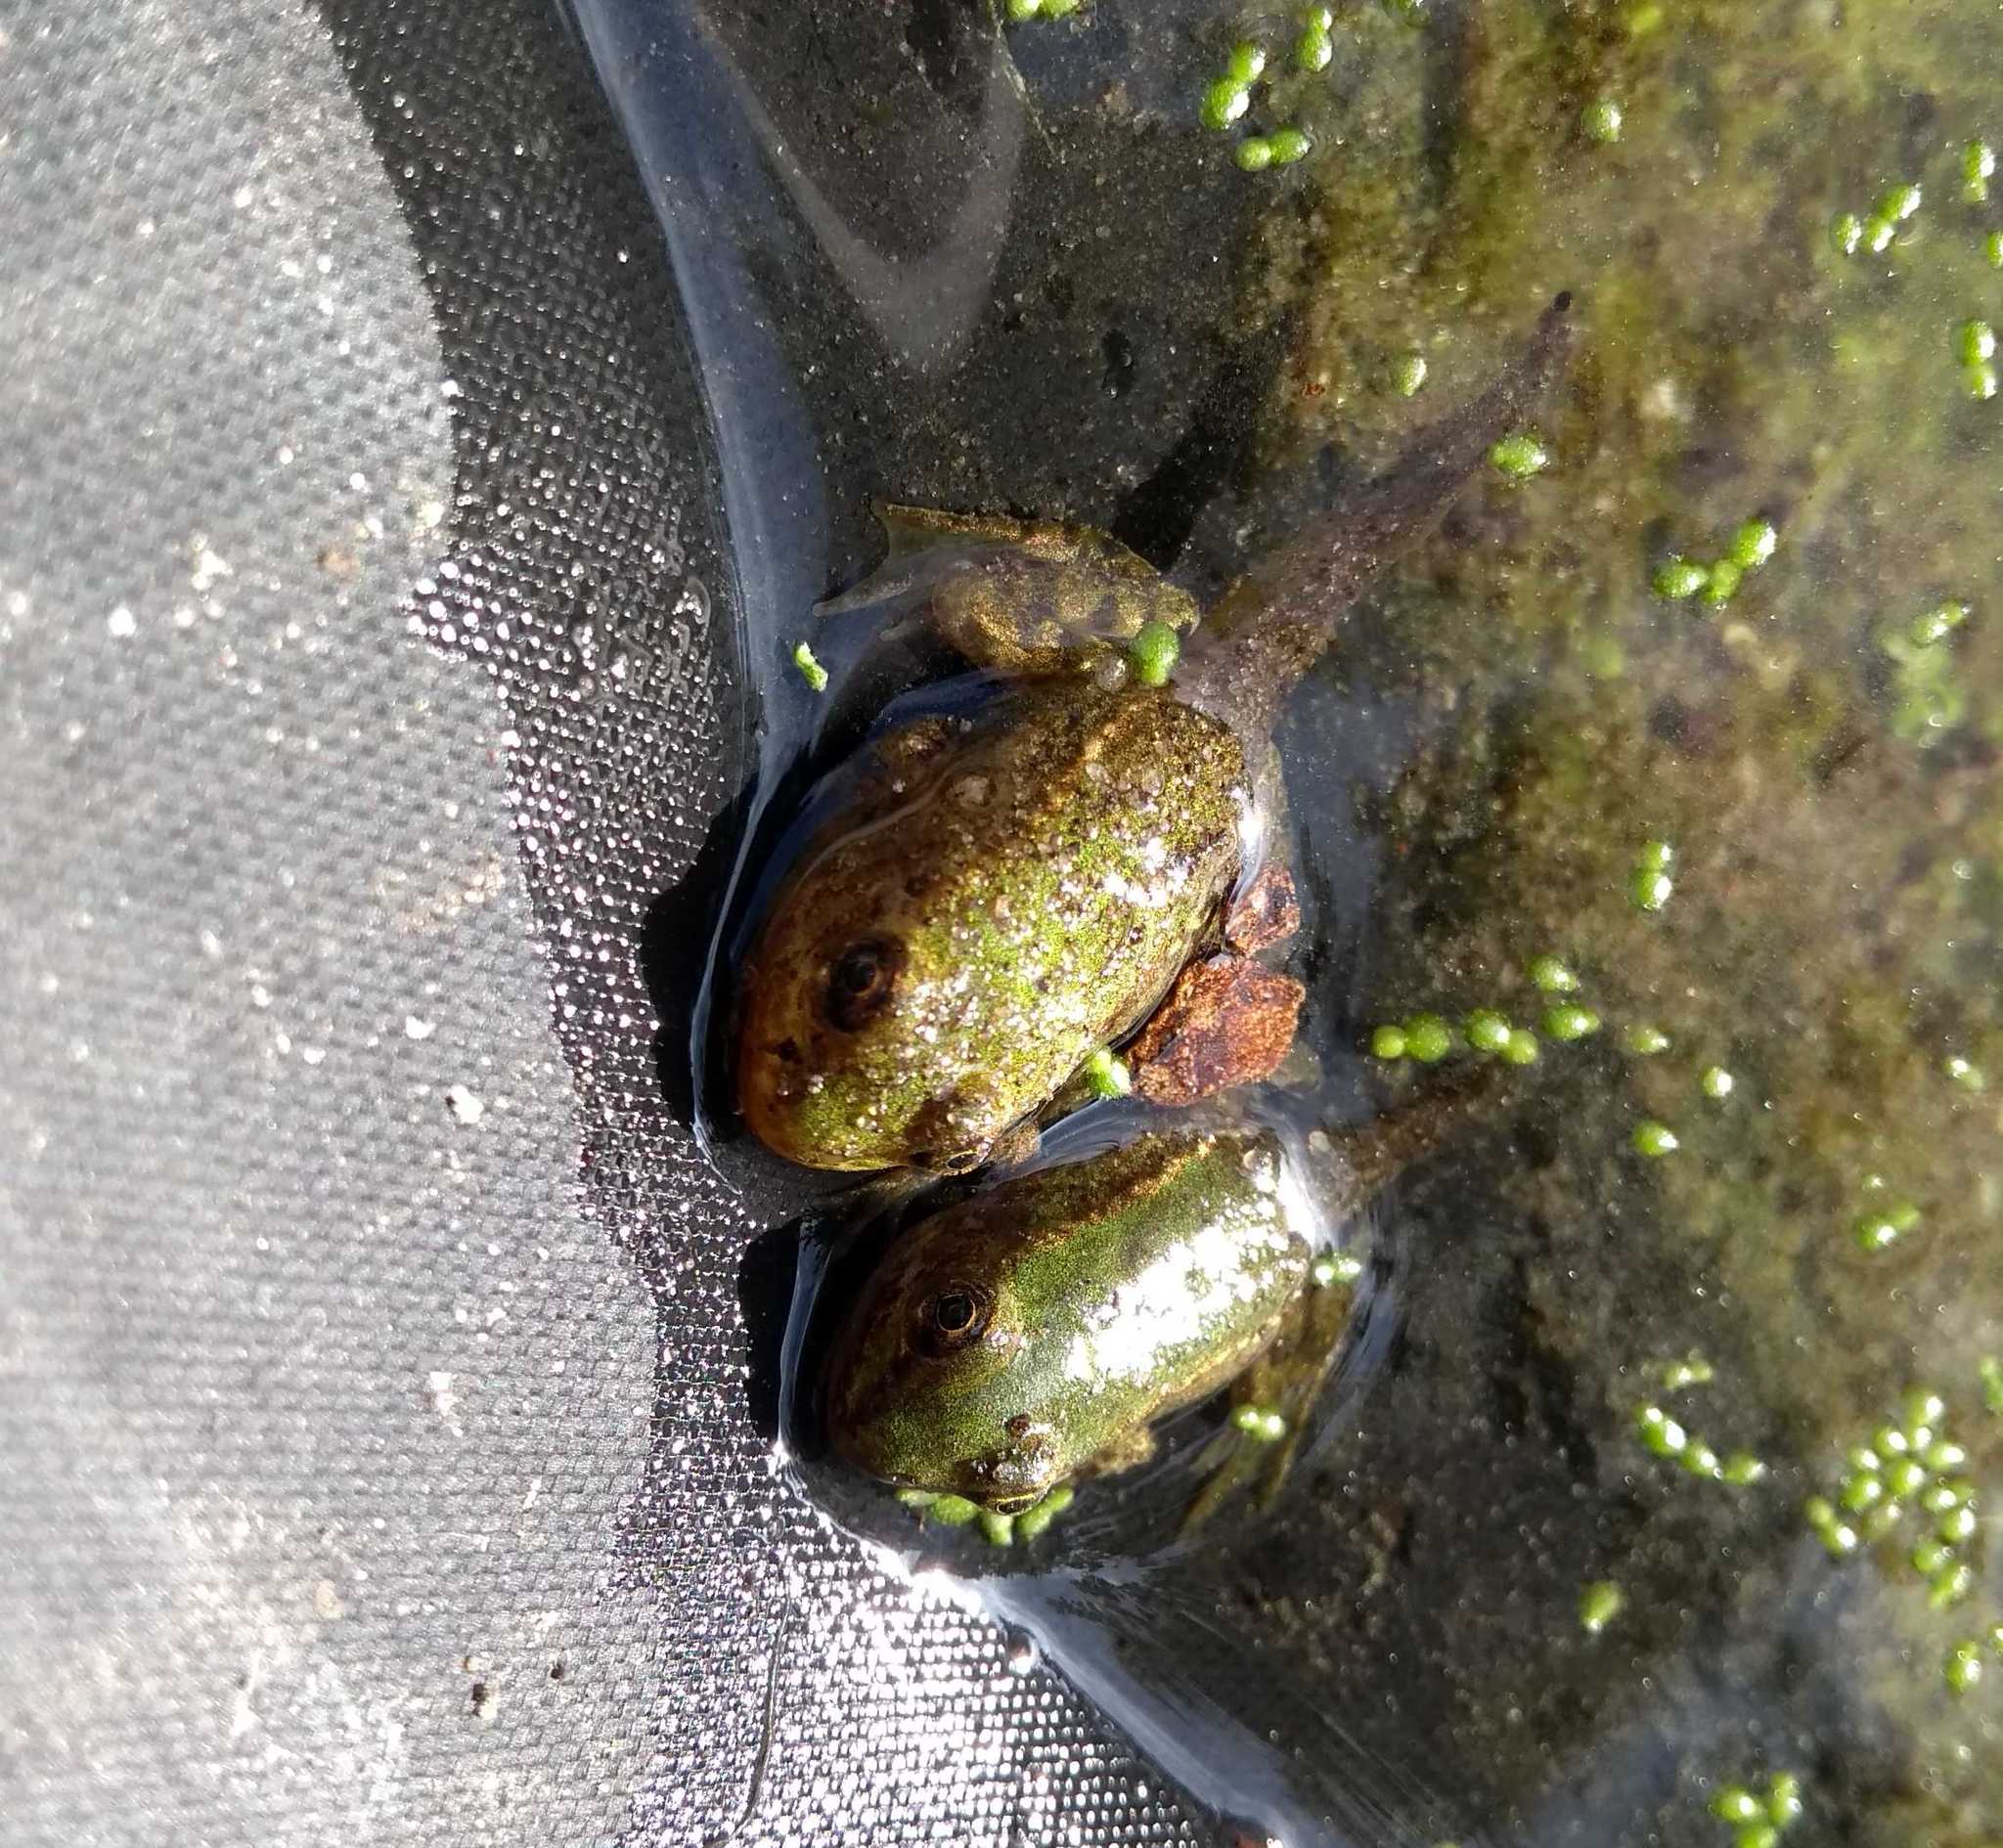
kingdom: Animalia
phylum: Chordata
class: Amphibia
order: Anura
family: Ranidae
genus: Pelophylax
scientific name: Pelophylax
